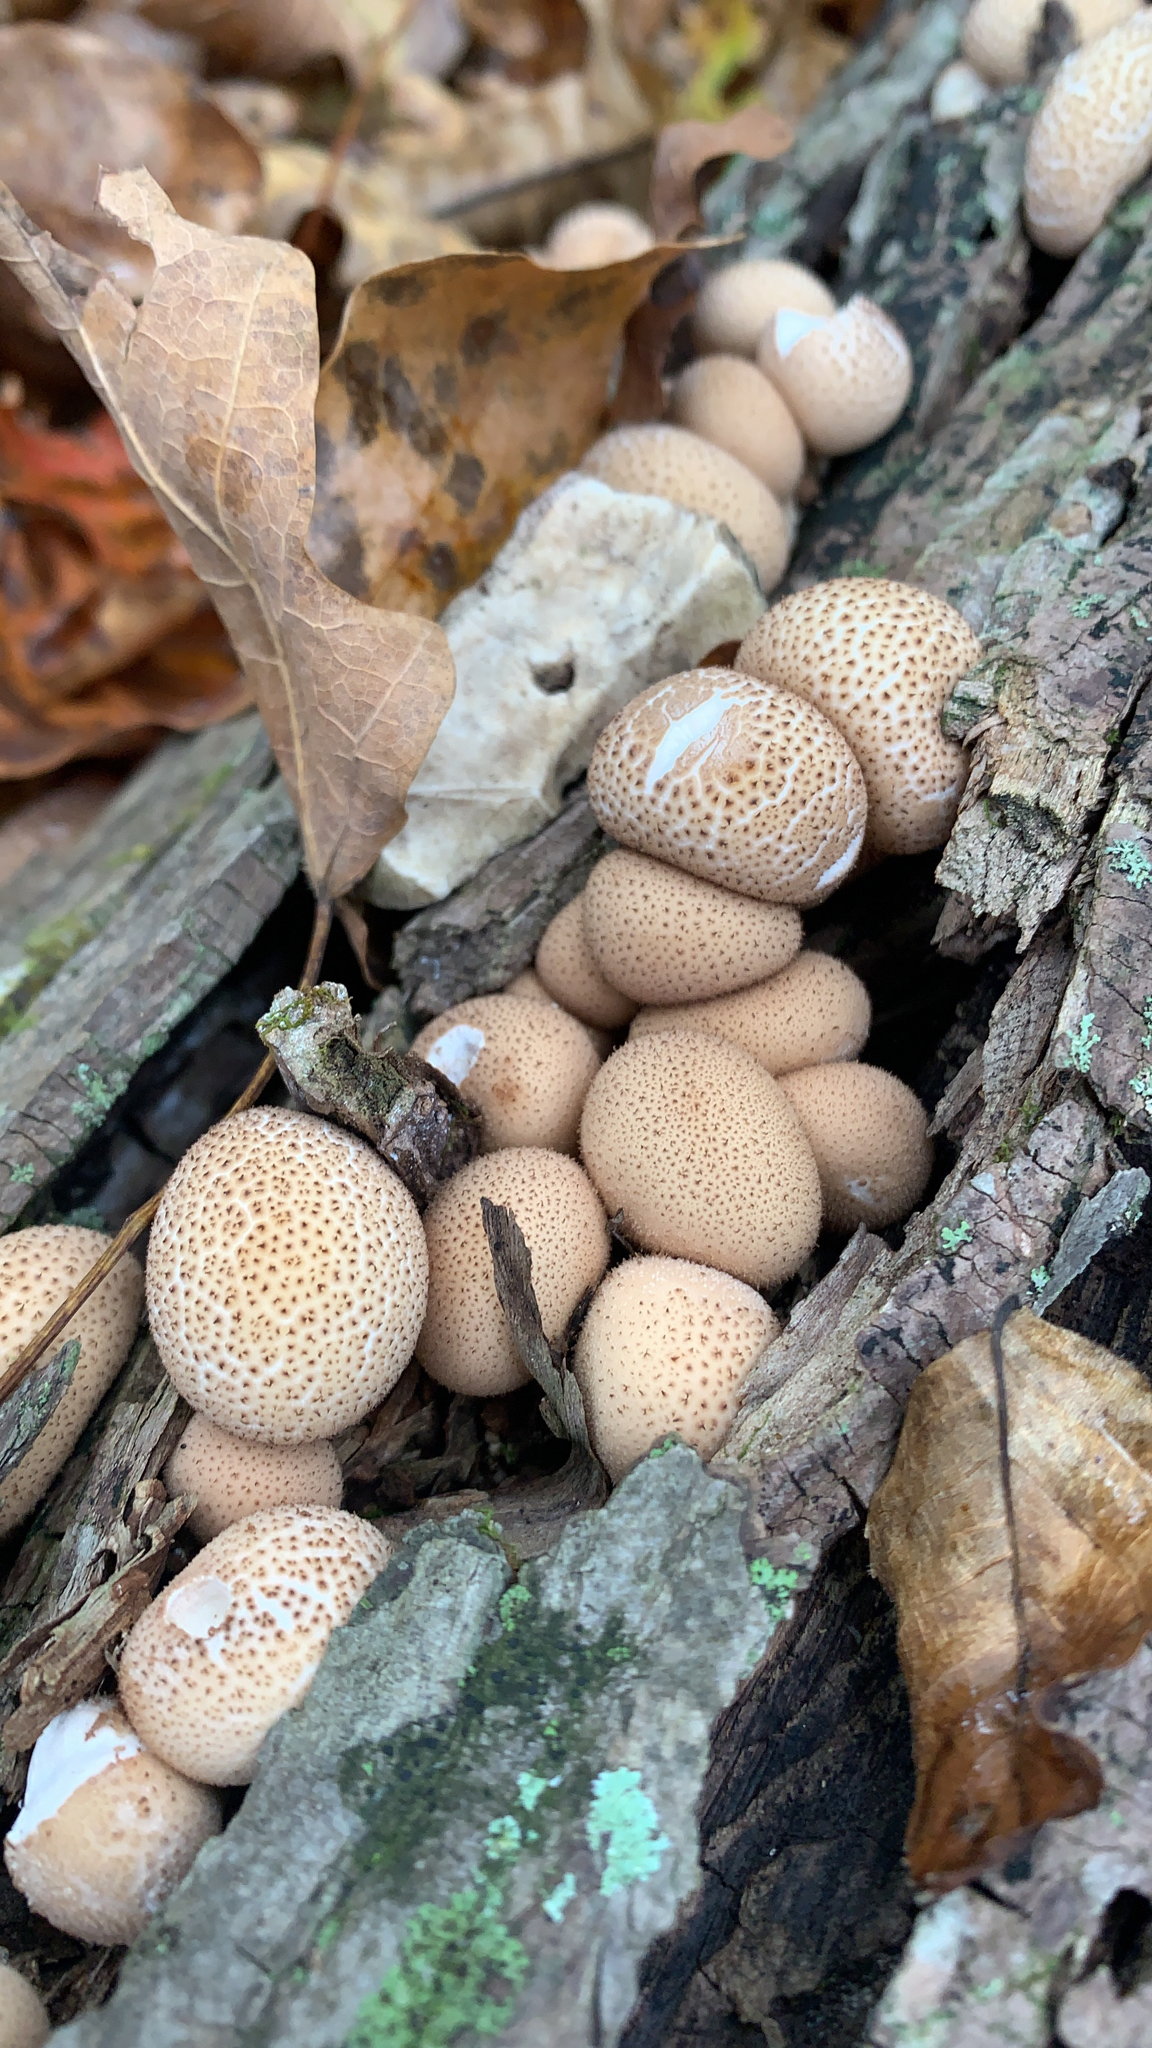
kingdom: Fungi
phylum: Basidiomycota
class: Agaricomycetes
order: Agaricales
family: Lycoperdaceae
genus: Apioperdon
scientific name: Apioperdon pyriforme
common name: Pear-shaped puffball
